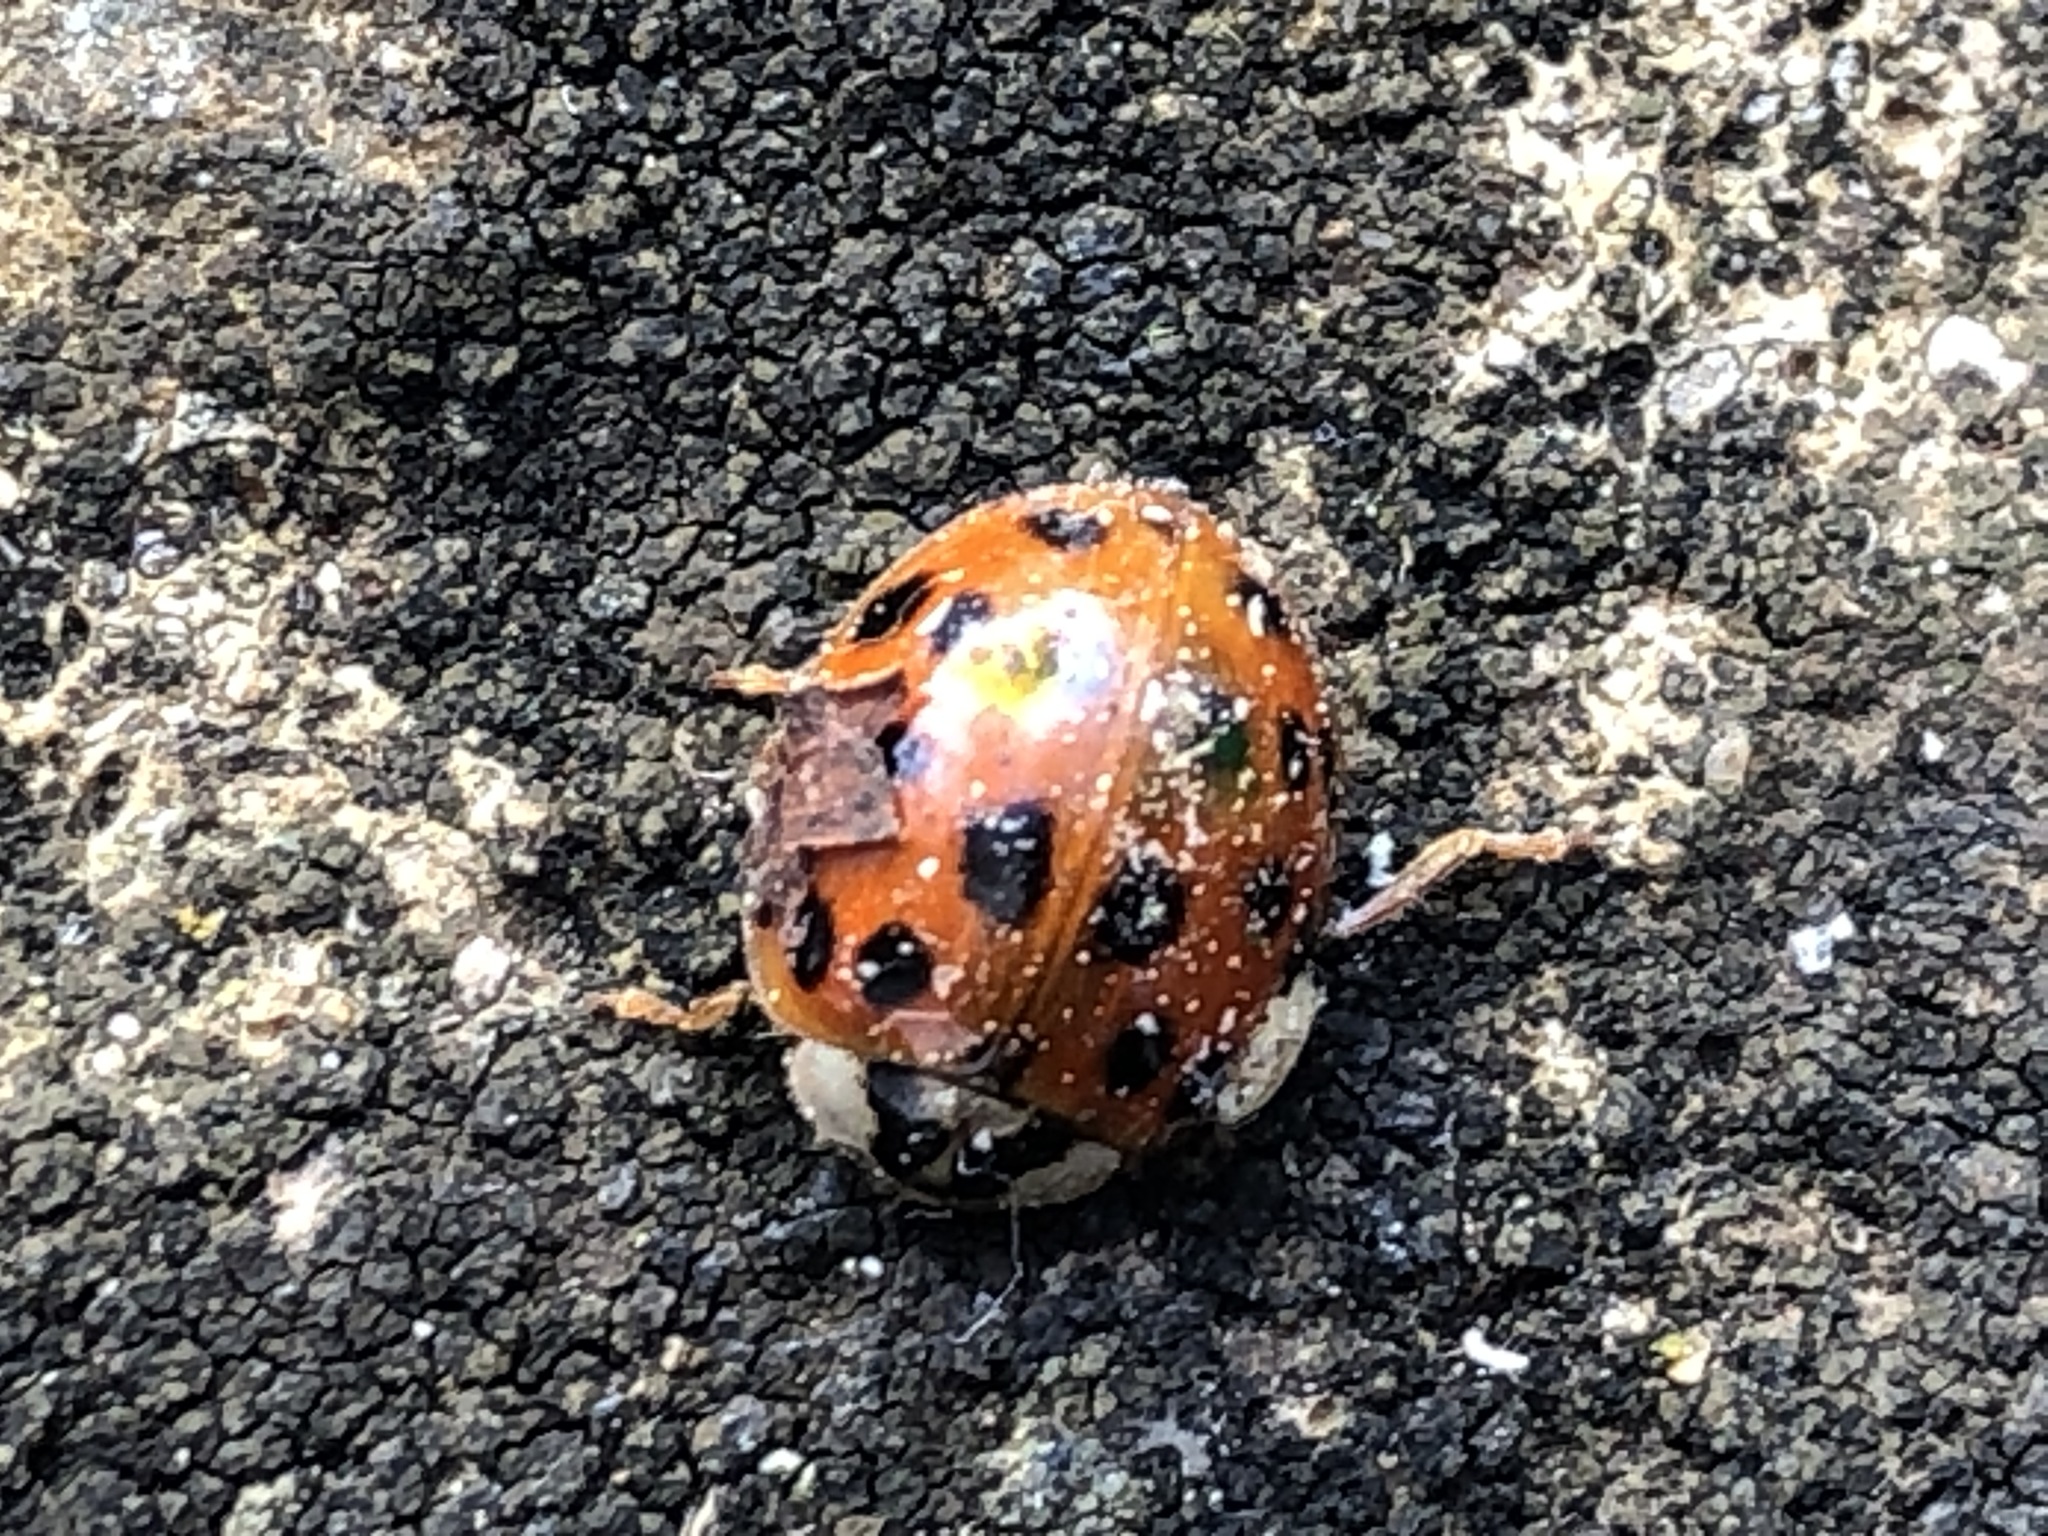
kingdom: Animalia
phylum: Arthropoda
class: Insecta
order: Coleoptera
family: Coccinellidae
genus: Harmonia
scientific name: Harmonia axyridis
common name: Harlequin ladybird
